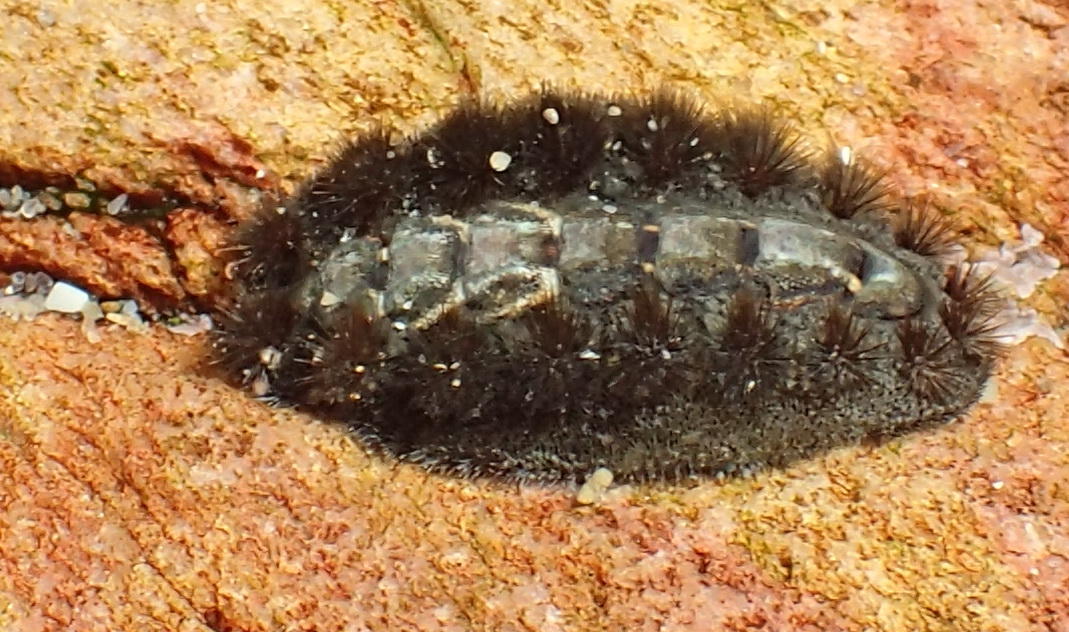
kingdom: Animalia
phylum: Mollusca
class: Polyplacophora
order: Chitonida
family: Acanthochitonidae
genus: Acanthochitona
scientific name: Acanthochitona garnoti
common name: Spiny chiton
